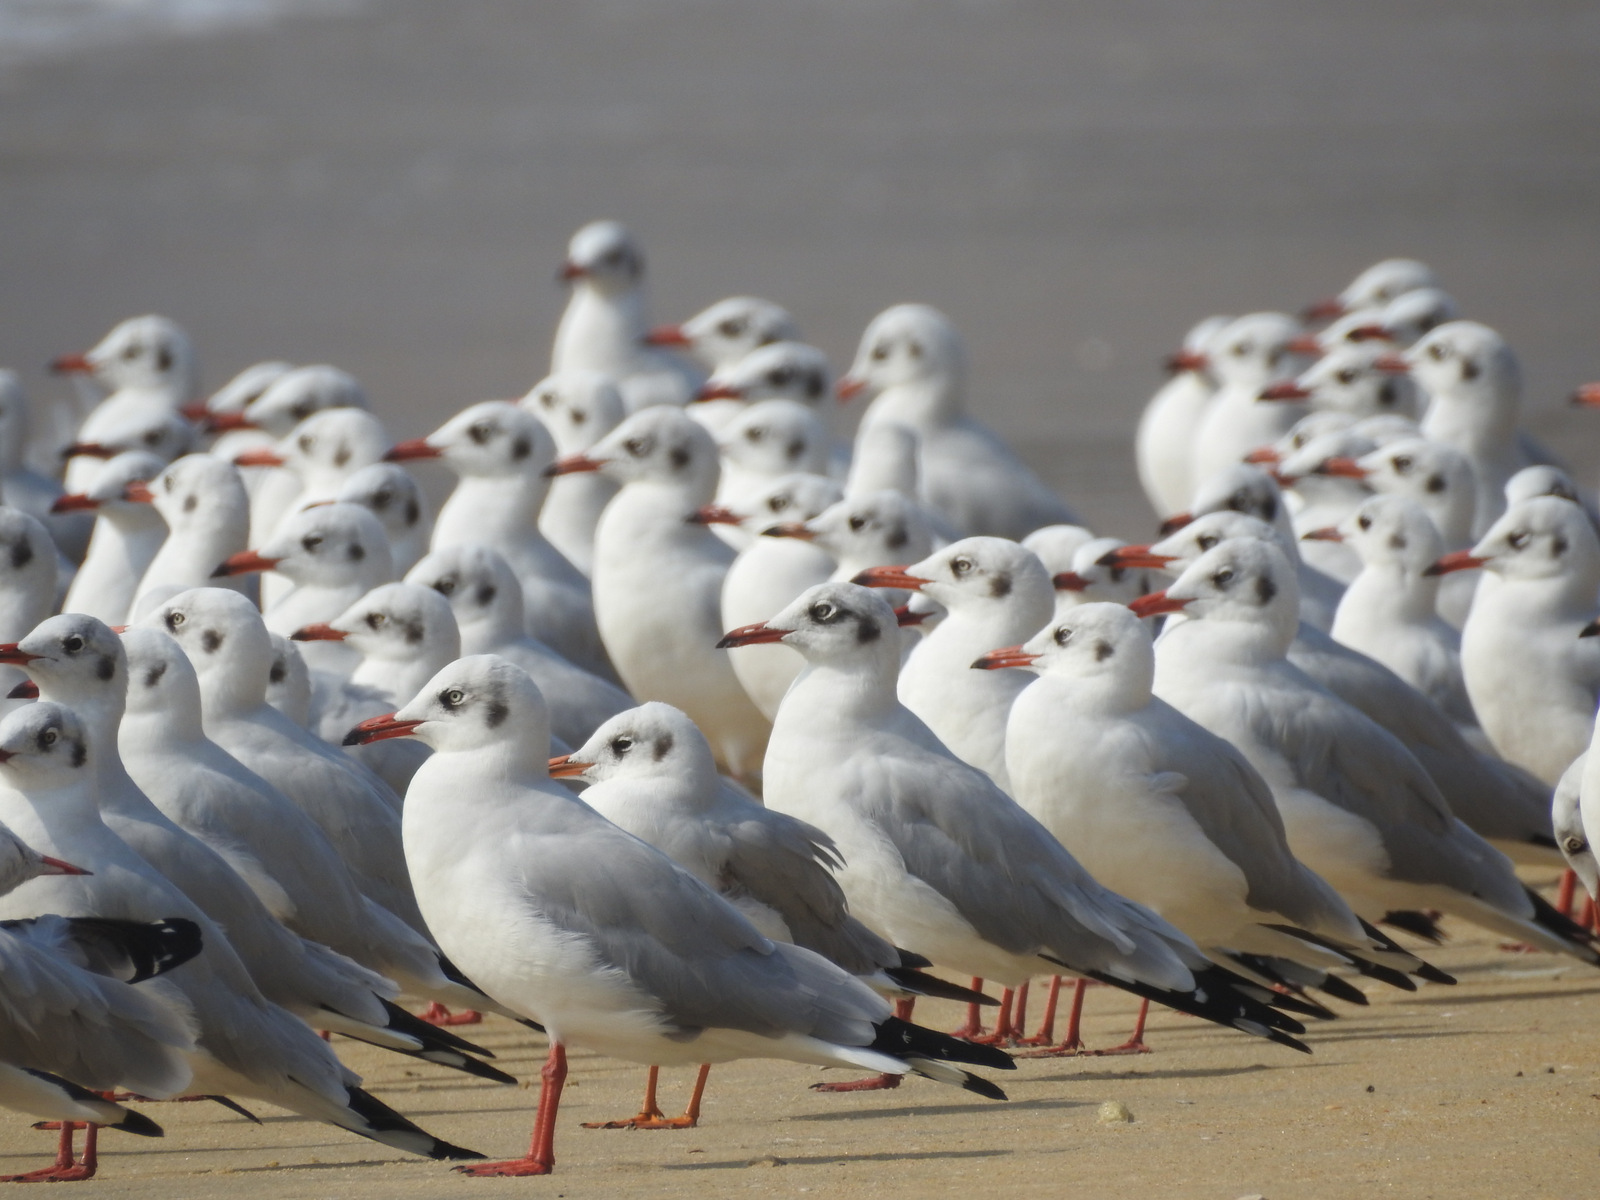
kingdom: Animalia
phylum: Chordata
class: Aves
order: Charadriiformes
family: Laridae
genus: Chroicocephalus
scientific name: Chroicocephalus ridibundus
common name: Black-headed gull
